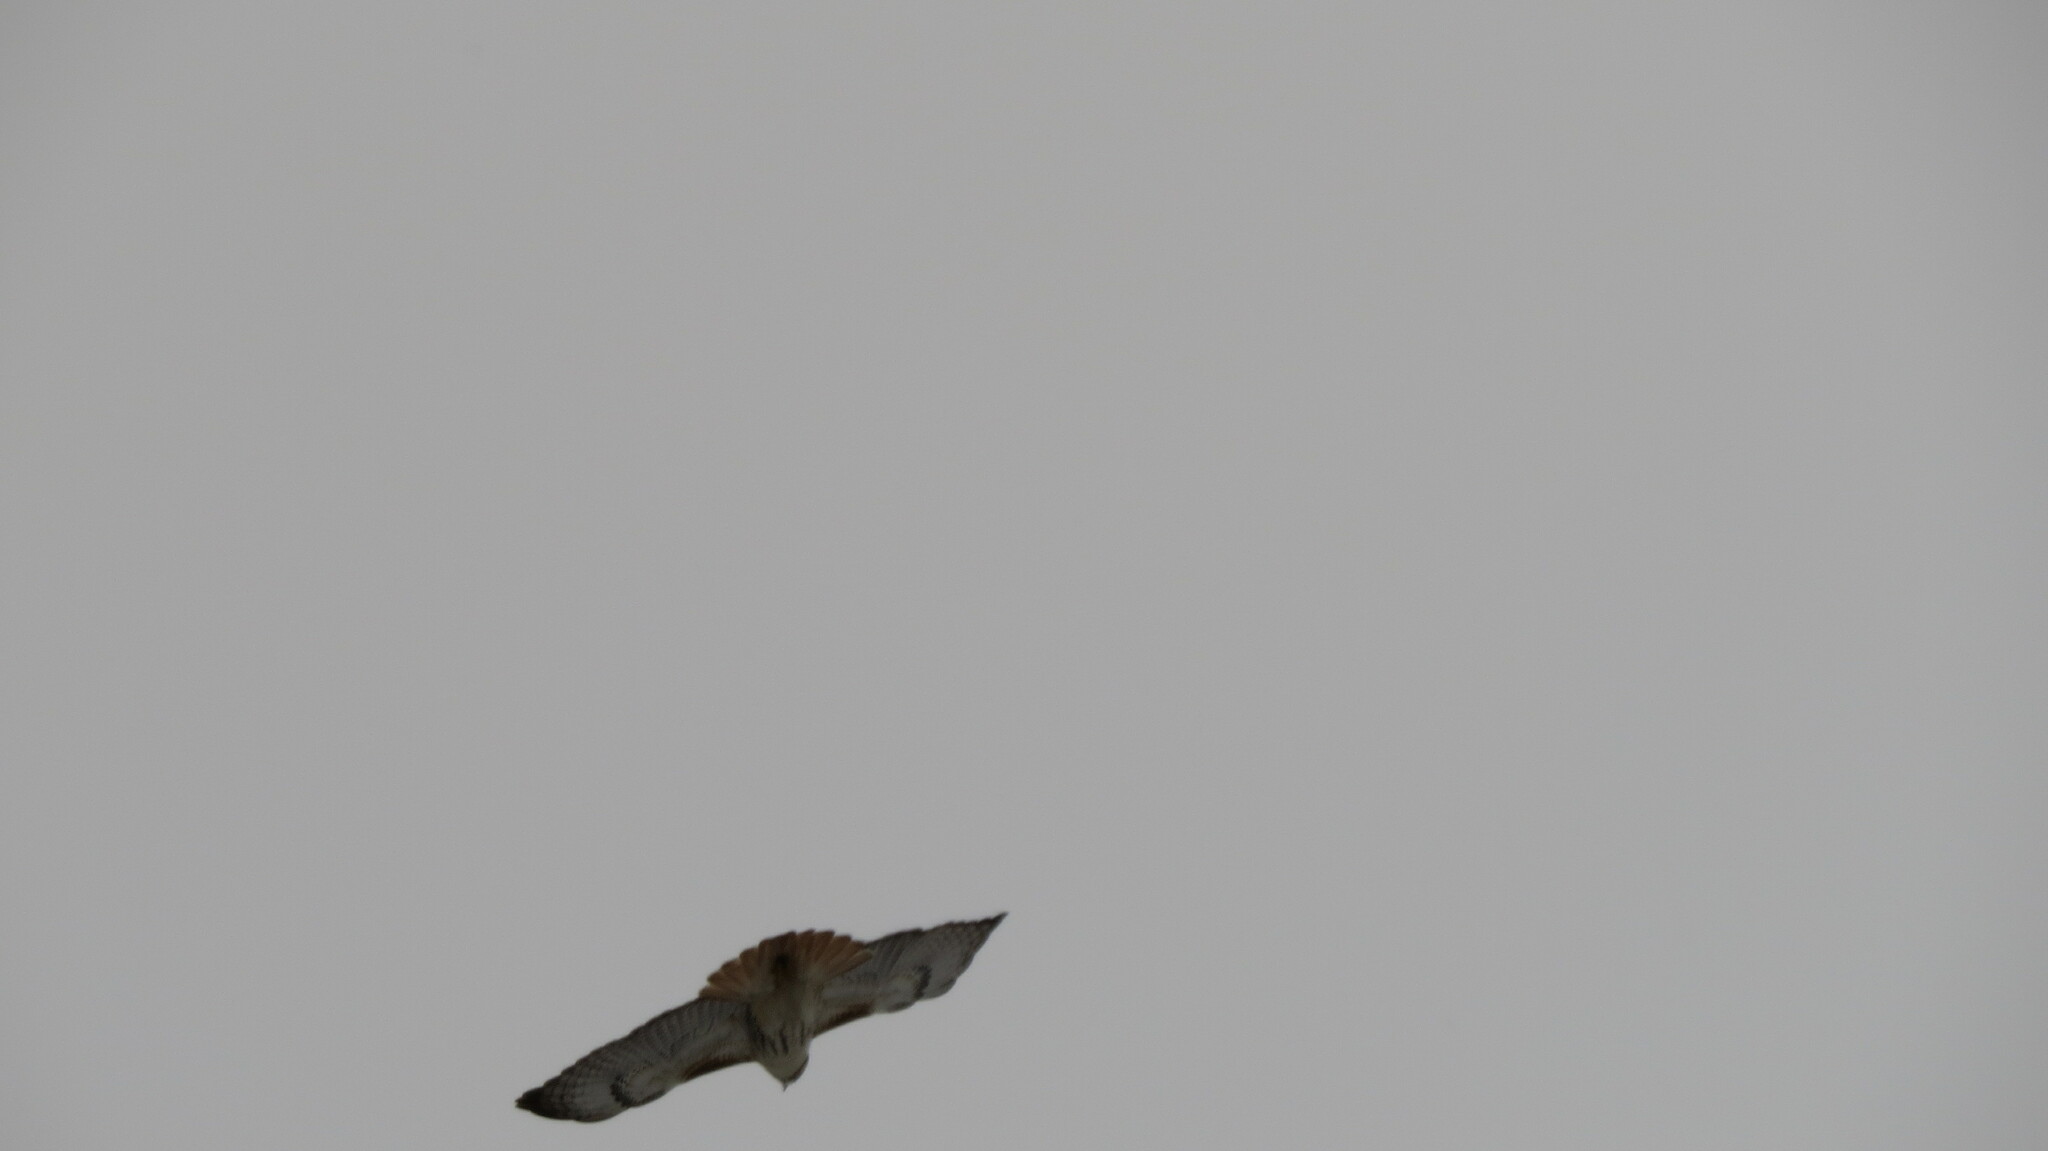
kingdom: Animalia
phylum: Chordata
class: Aves
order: Accipitriformes
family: Accipitridae
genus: Buteo
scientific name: Buteo jamaicensis
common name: Red-tailed hawk
